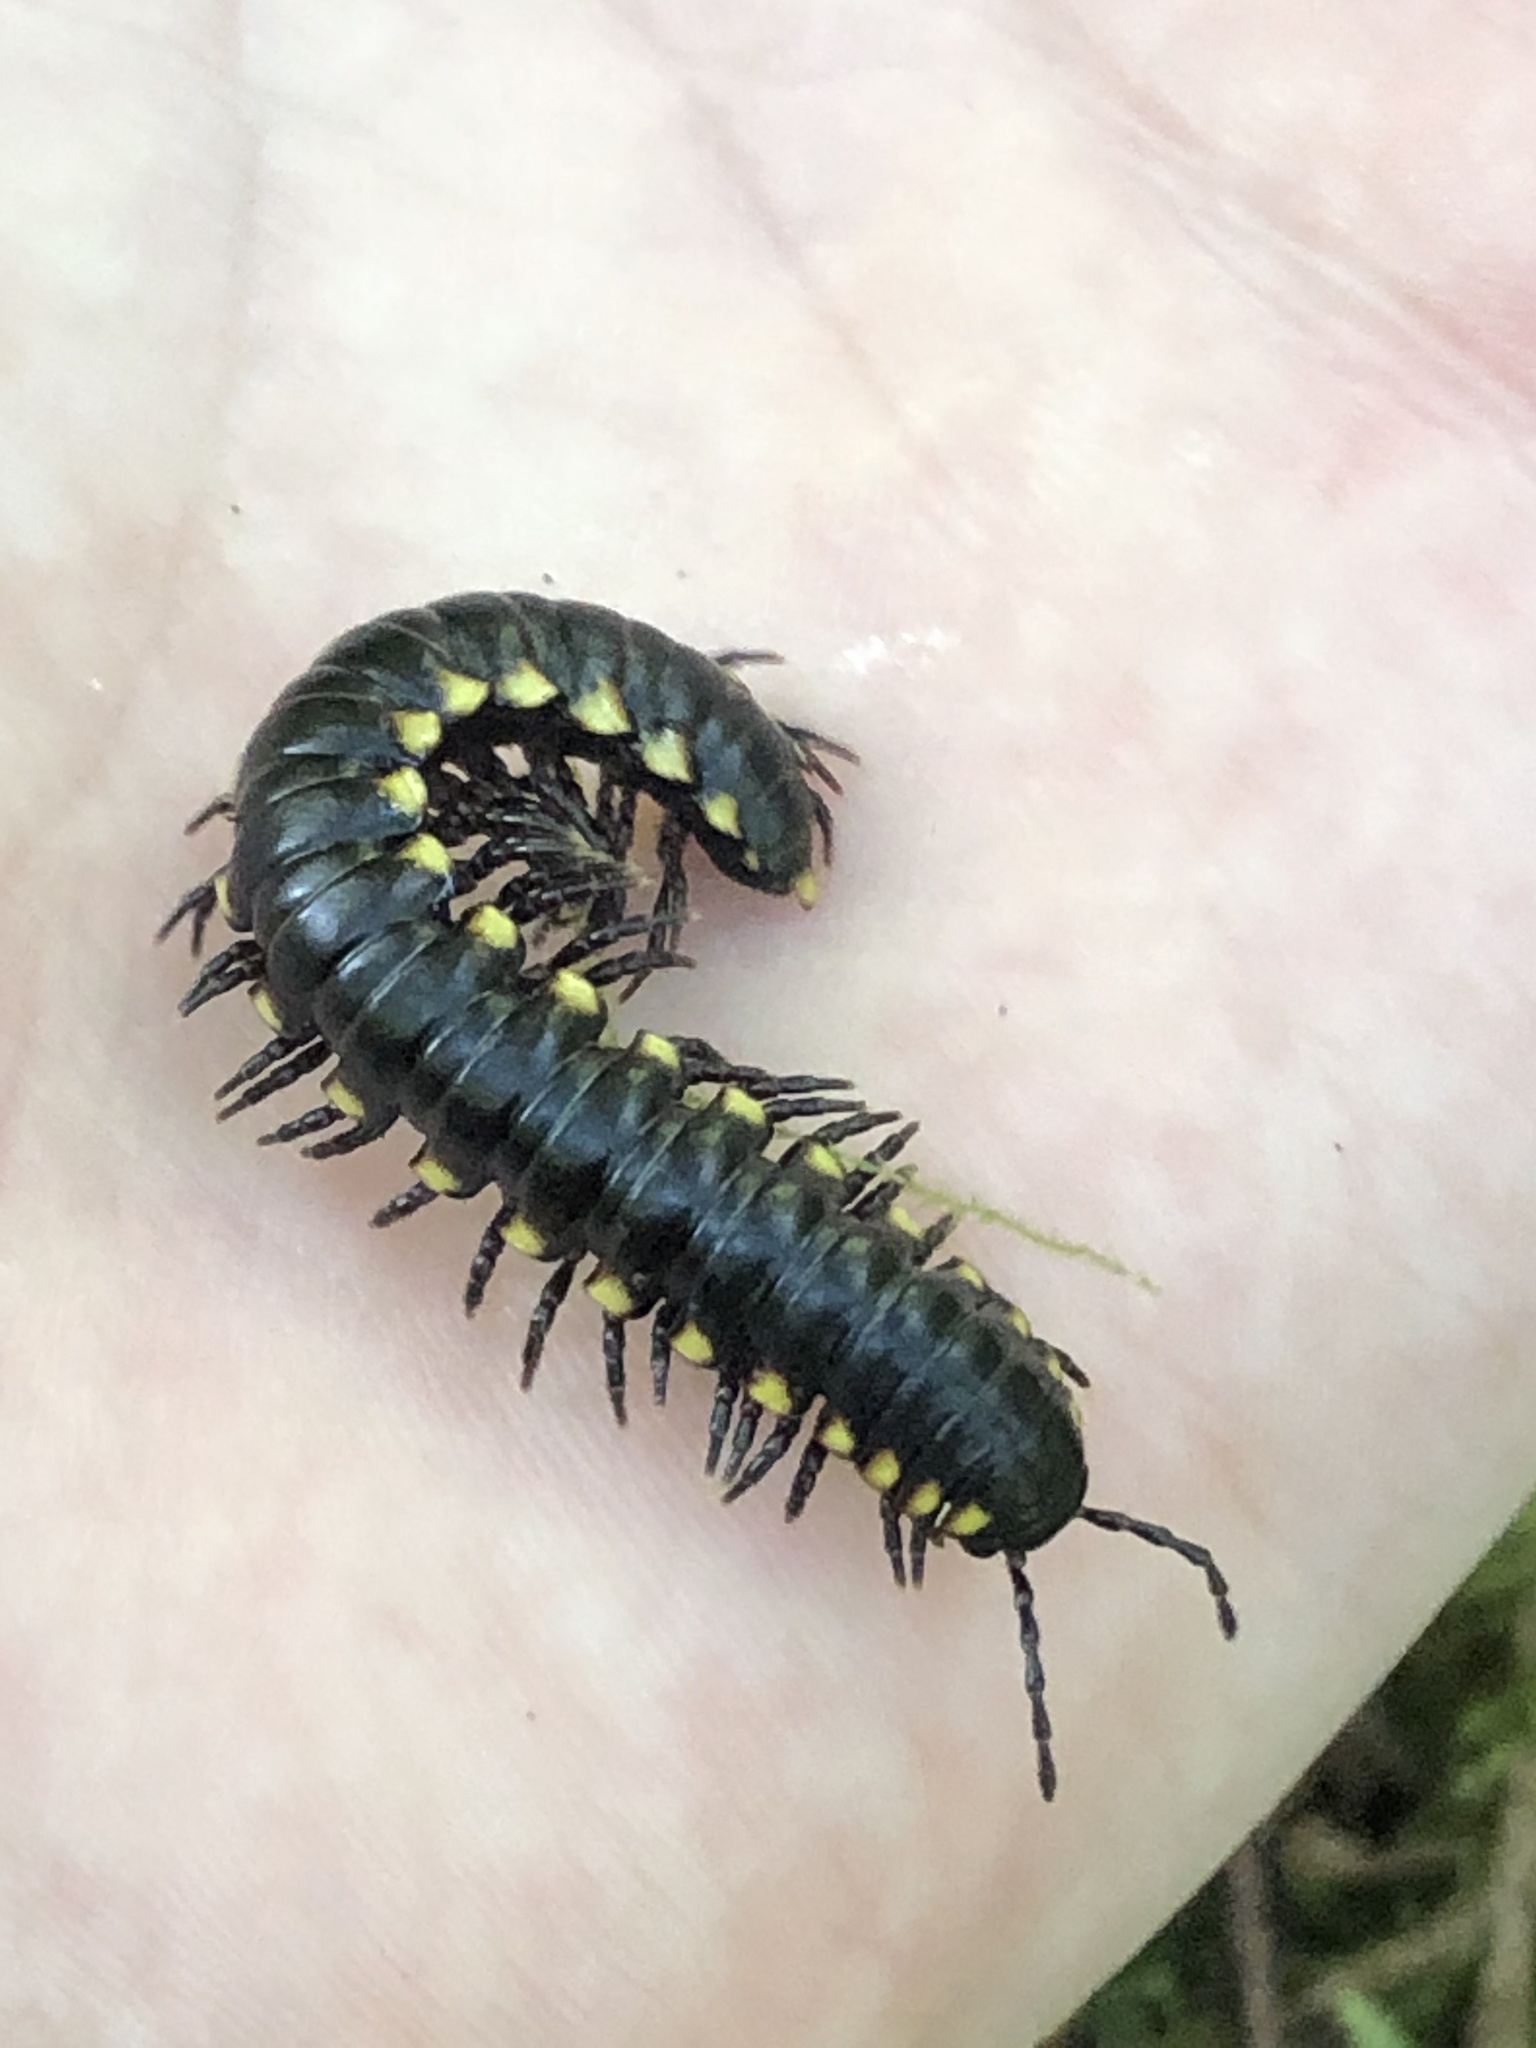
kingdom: Animalia
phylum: Arthropoda
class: Diplopoda
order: Polydesmida
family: Xystodesmidae
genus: Harpaphe
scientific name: Harpaphe haydeniana
